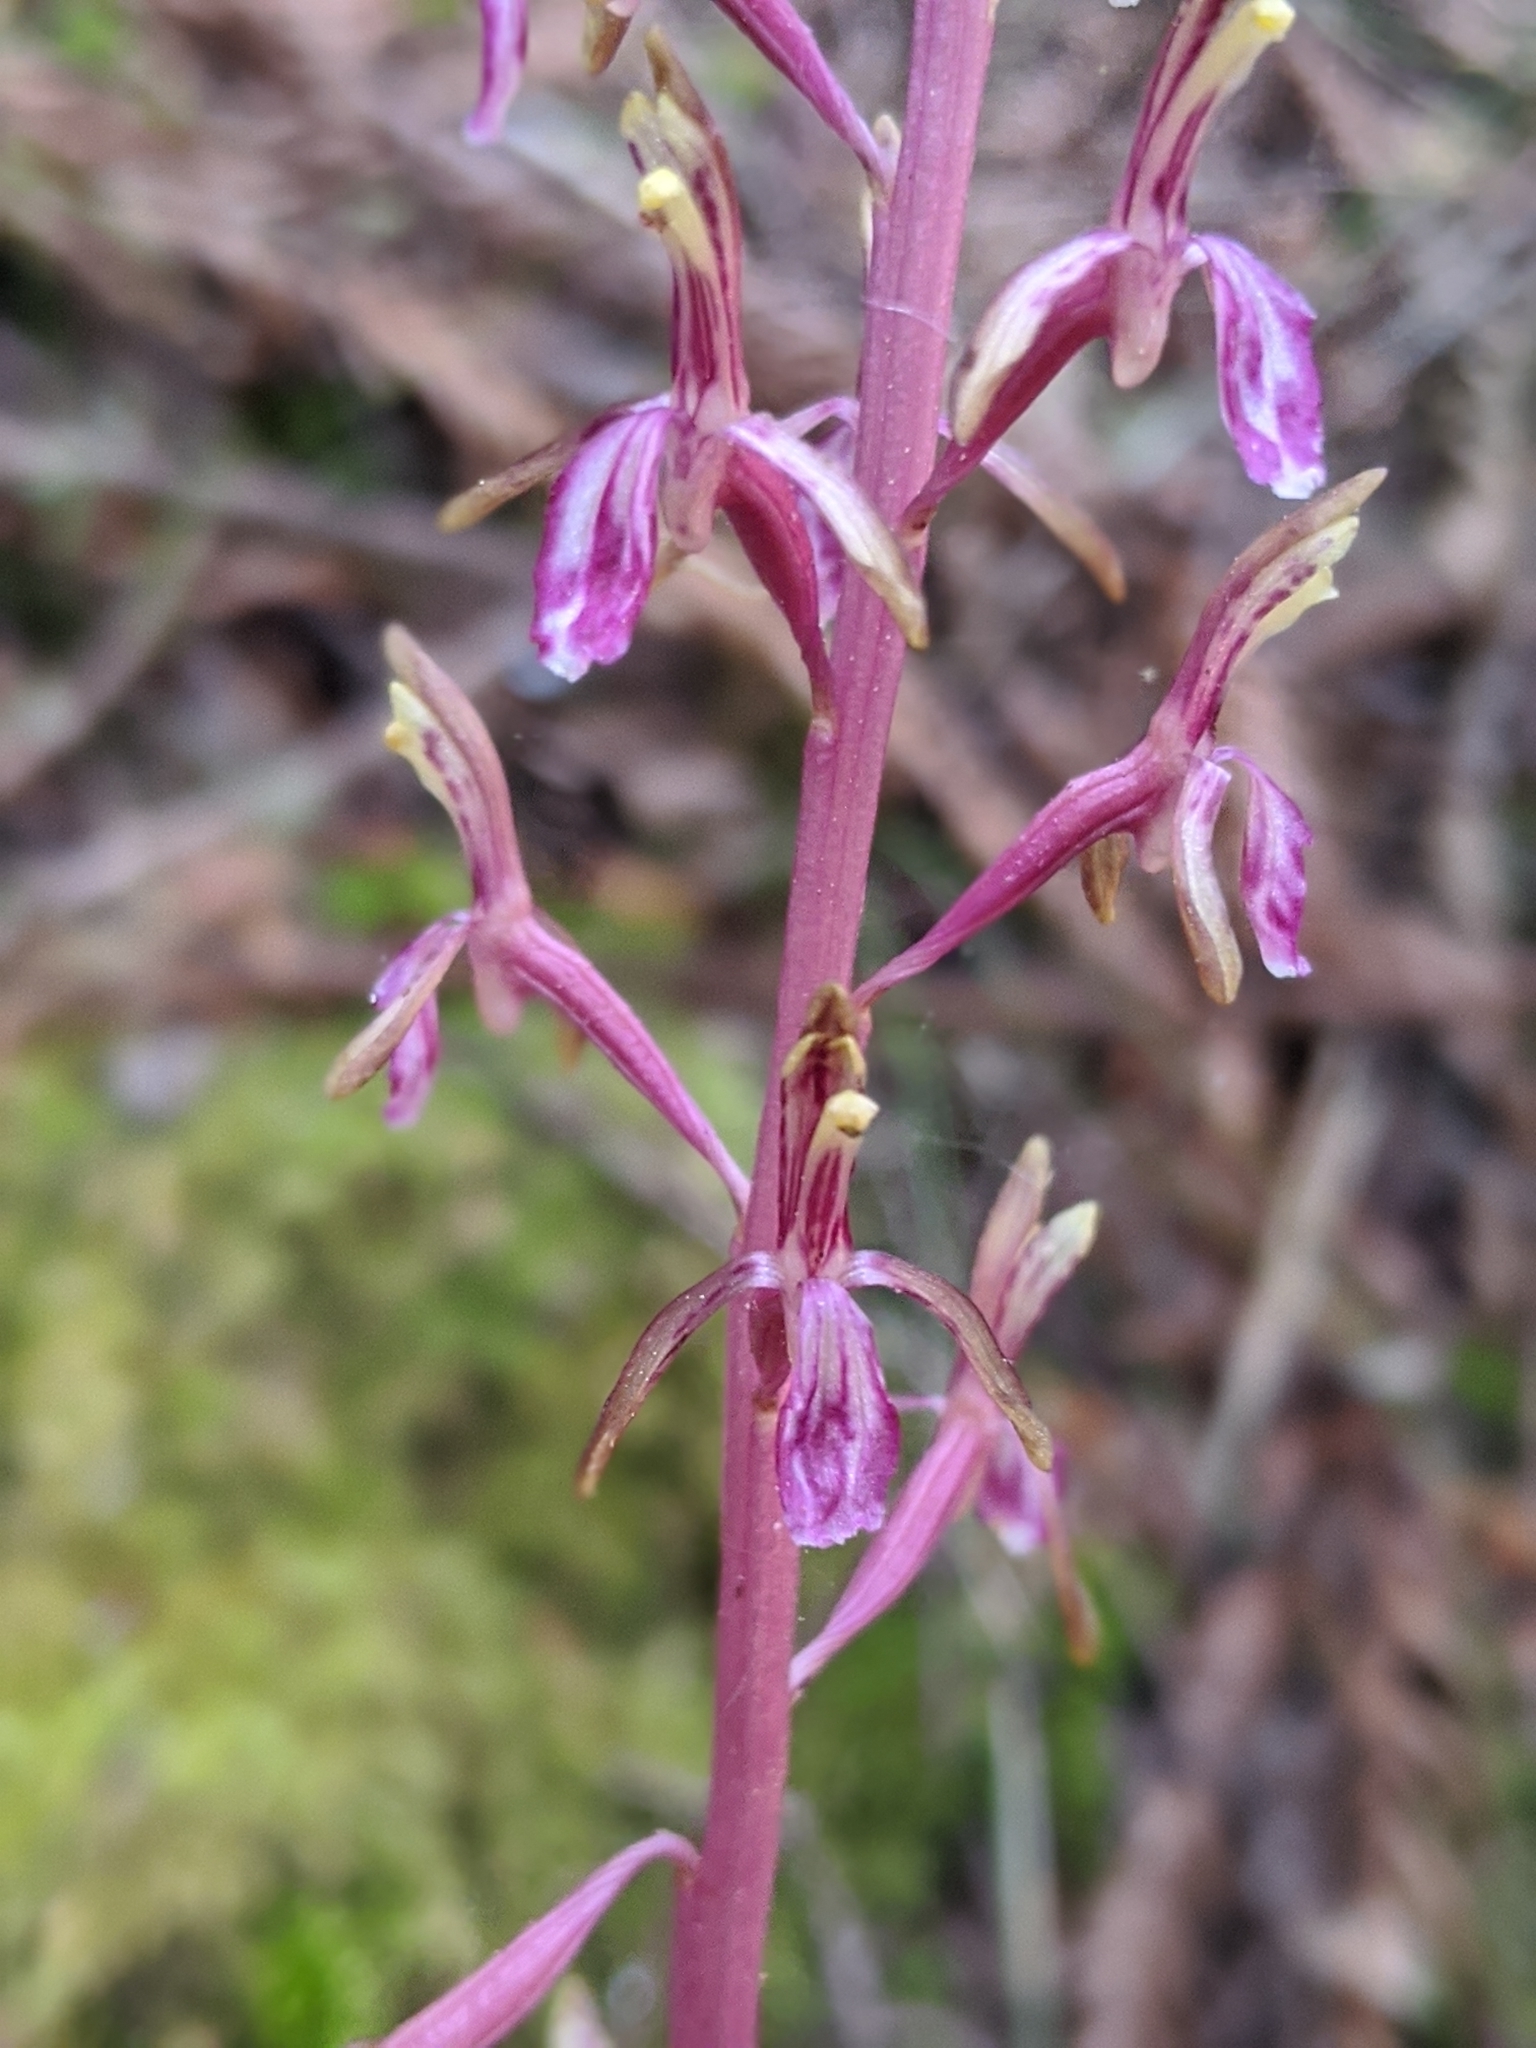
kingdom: Plantae
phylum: Tracheophyta
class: Liliopsida
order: Asparagales
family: Orchidaceae
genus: Corallorhiza
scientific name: Corallorhiza mertensiana
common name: Pacific coralroot
